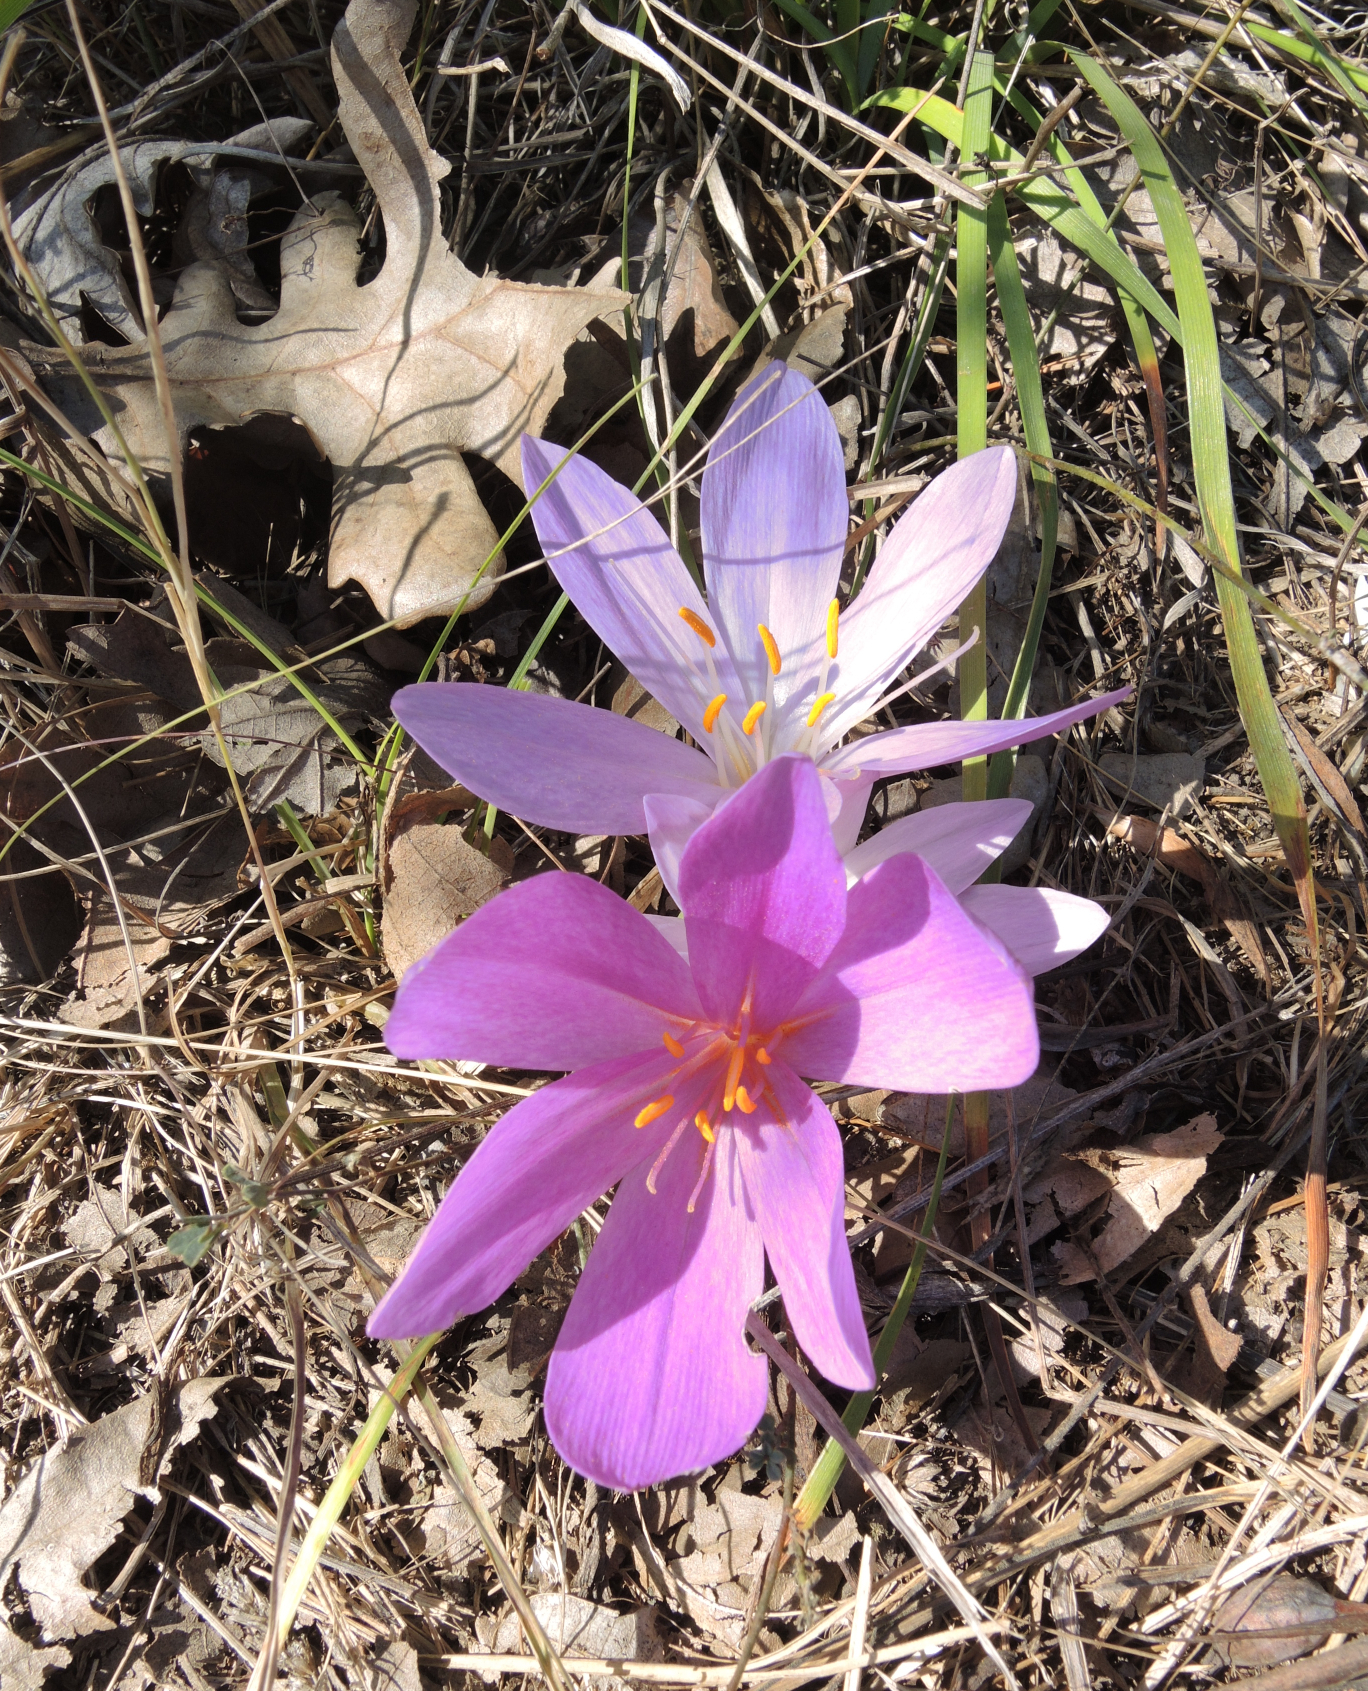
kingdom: Plantae
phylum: Tracheophyta
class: Liliopsida
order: Liliales
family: Colchicaceae
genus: Colchicum
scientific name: Colchicum autumnale
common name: Autumn crocus
